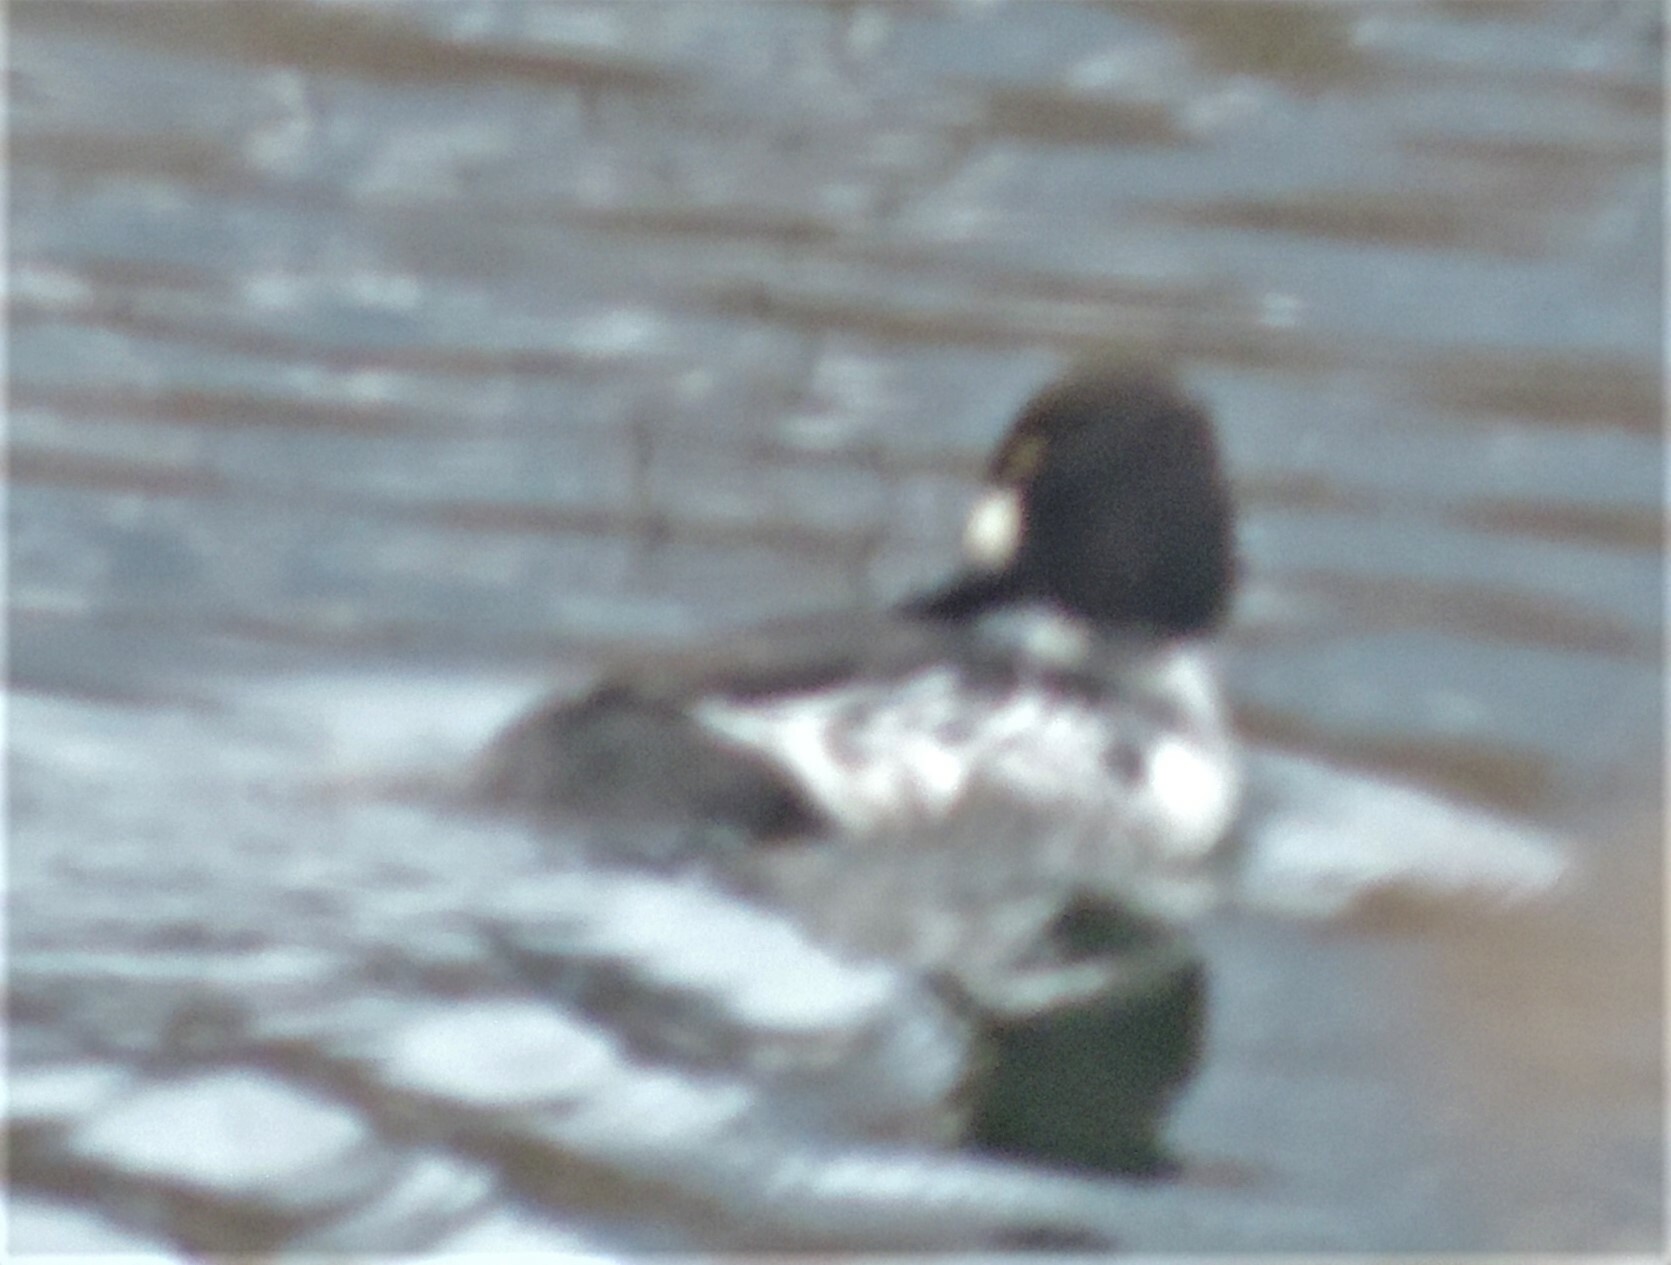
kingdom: Animalia
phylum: Chordata
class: Aves
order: Anseriformes
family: Anatidae
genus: Bucephala
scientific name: Bucephala clangula
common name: Common goldeneye
